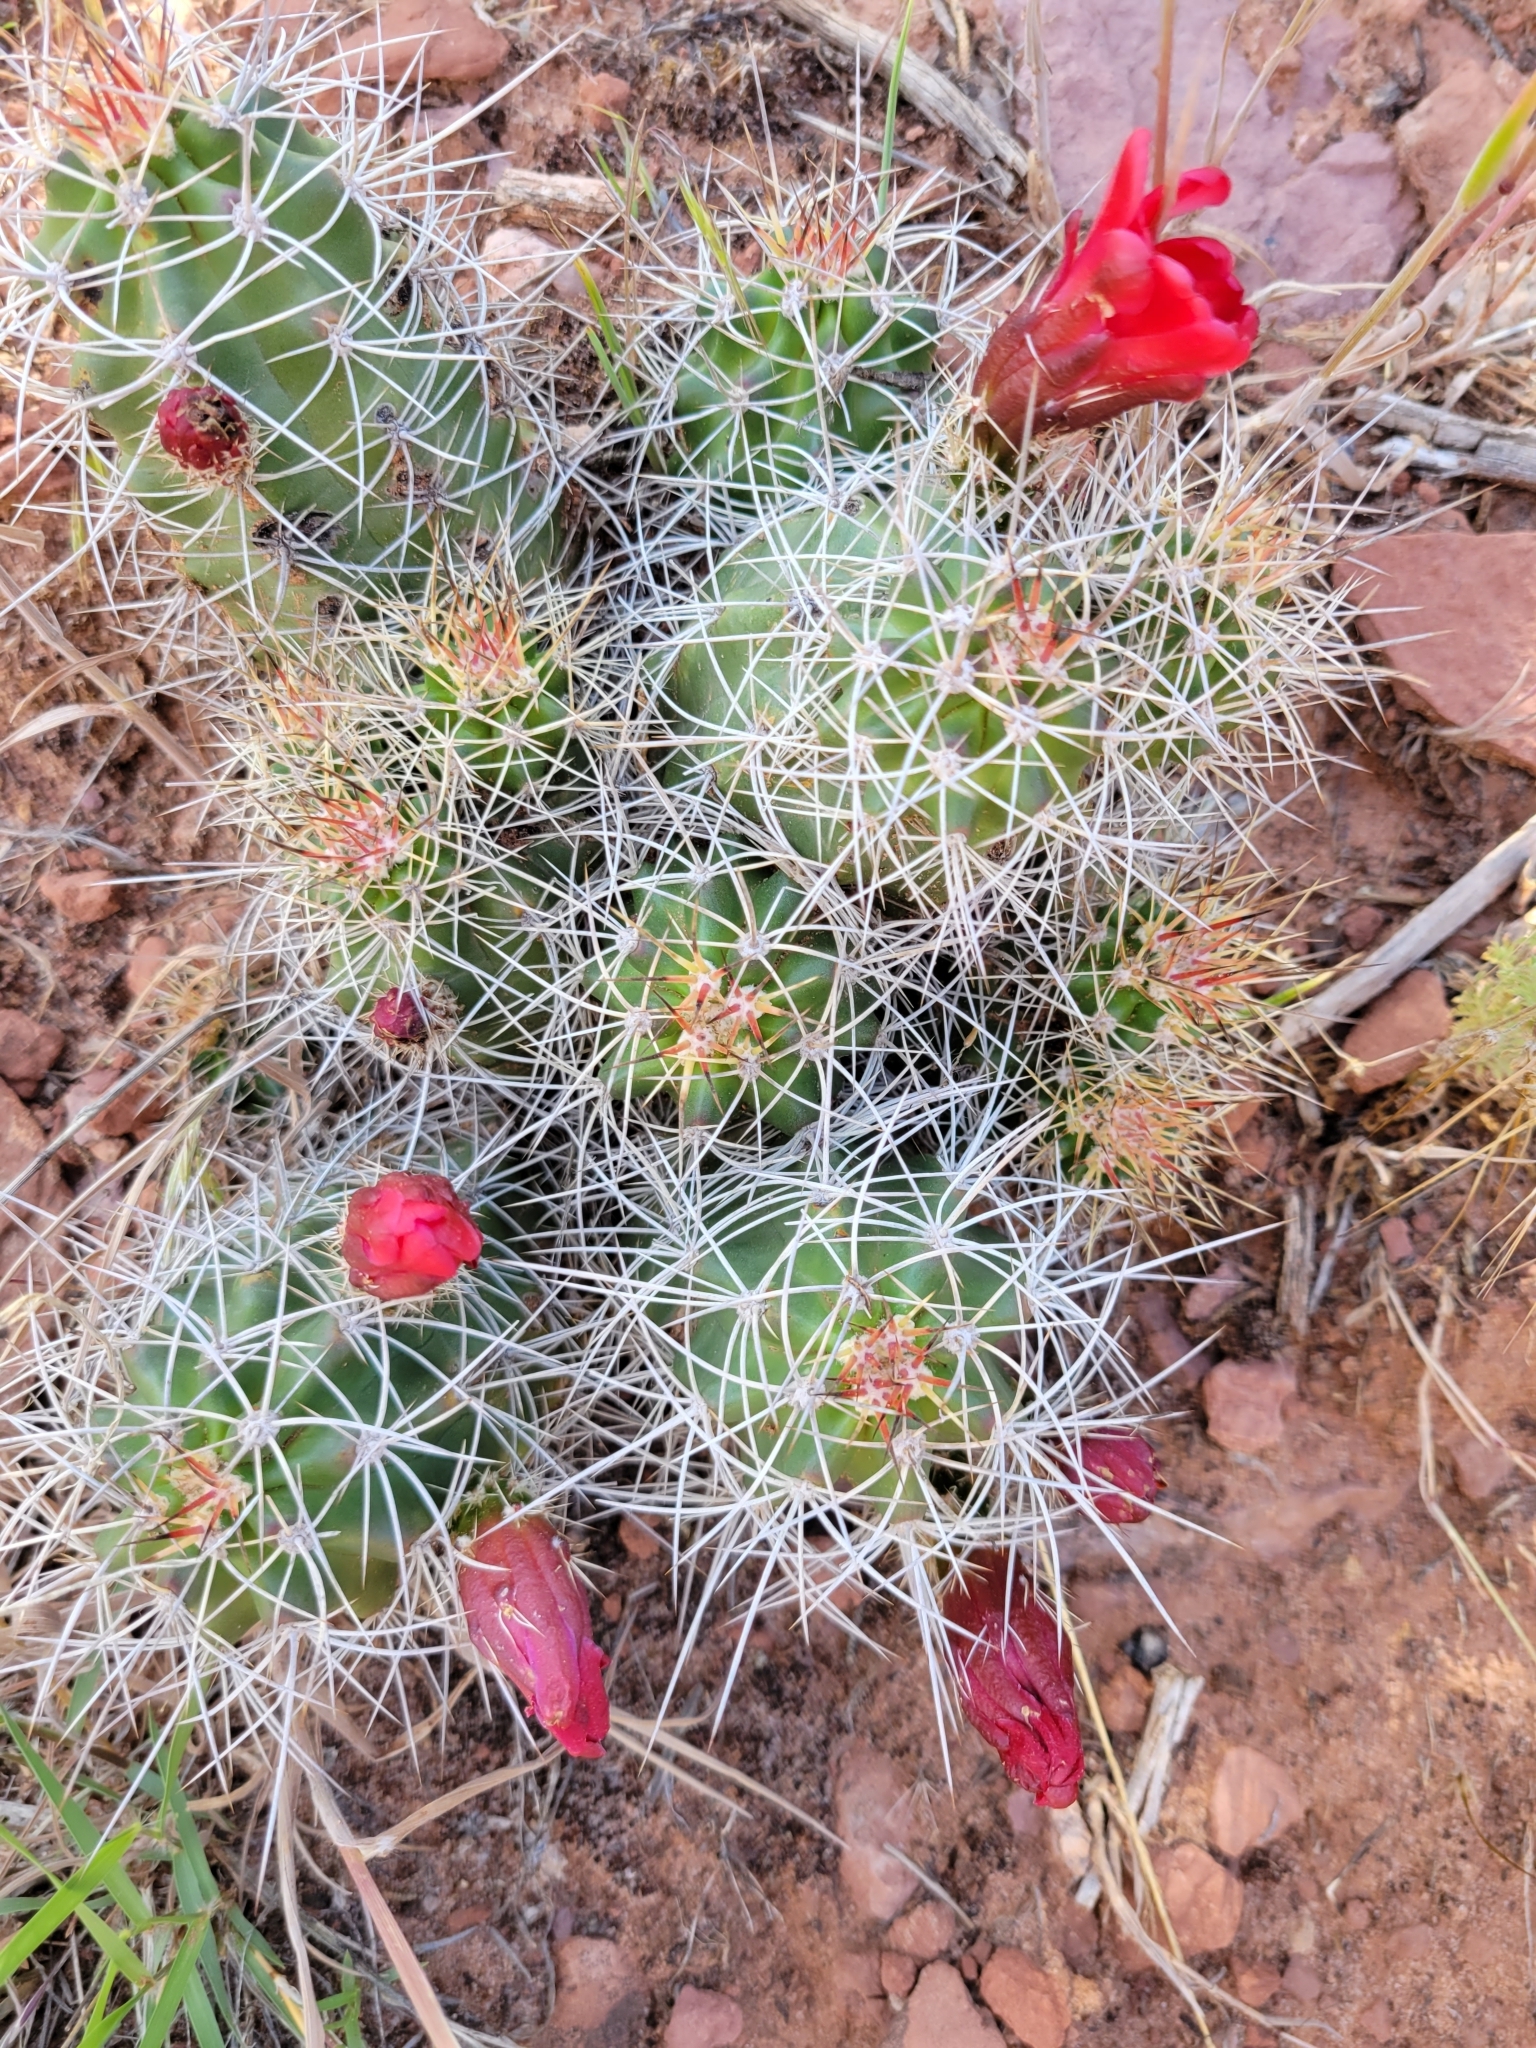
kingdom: Plantae
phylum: Tracheophyta
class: Magnoliopsida
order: Caryophyllales
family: Cactaceae
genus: Echinocereus
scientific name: Echinocereus triglochidiatus
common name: Claretcup hedgehog
